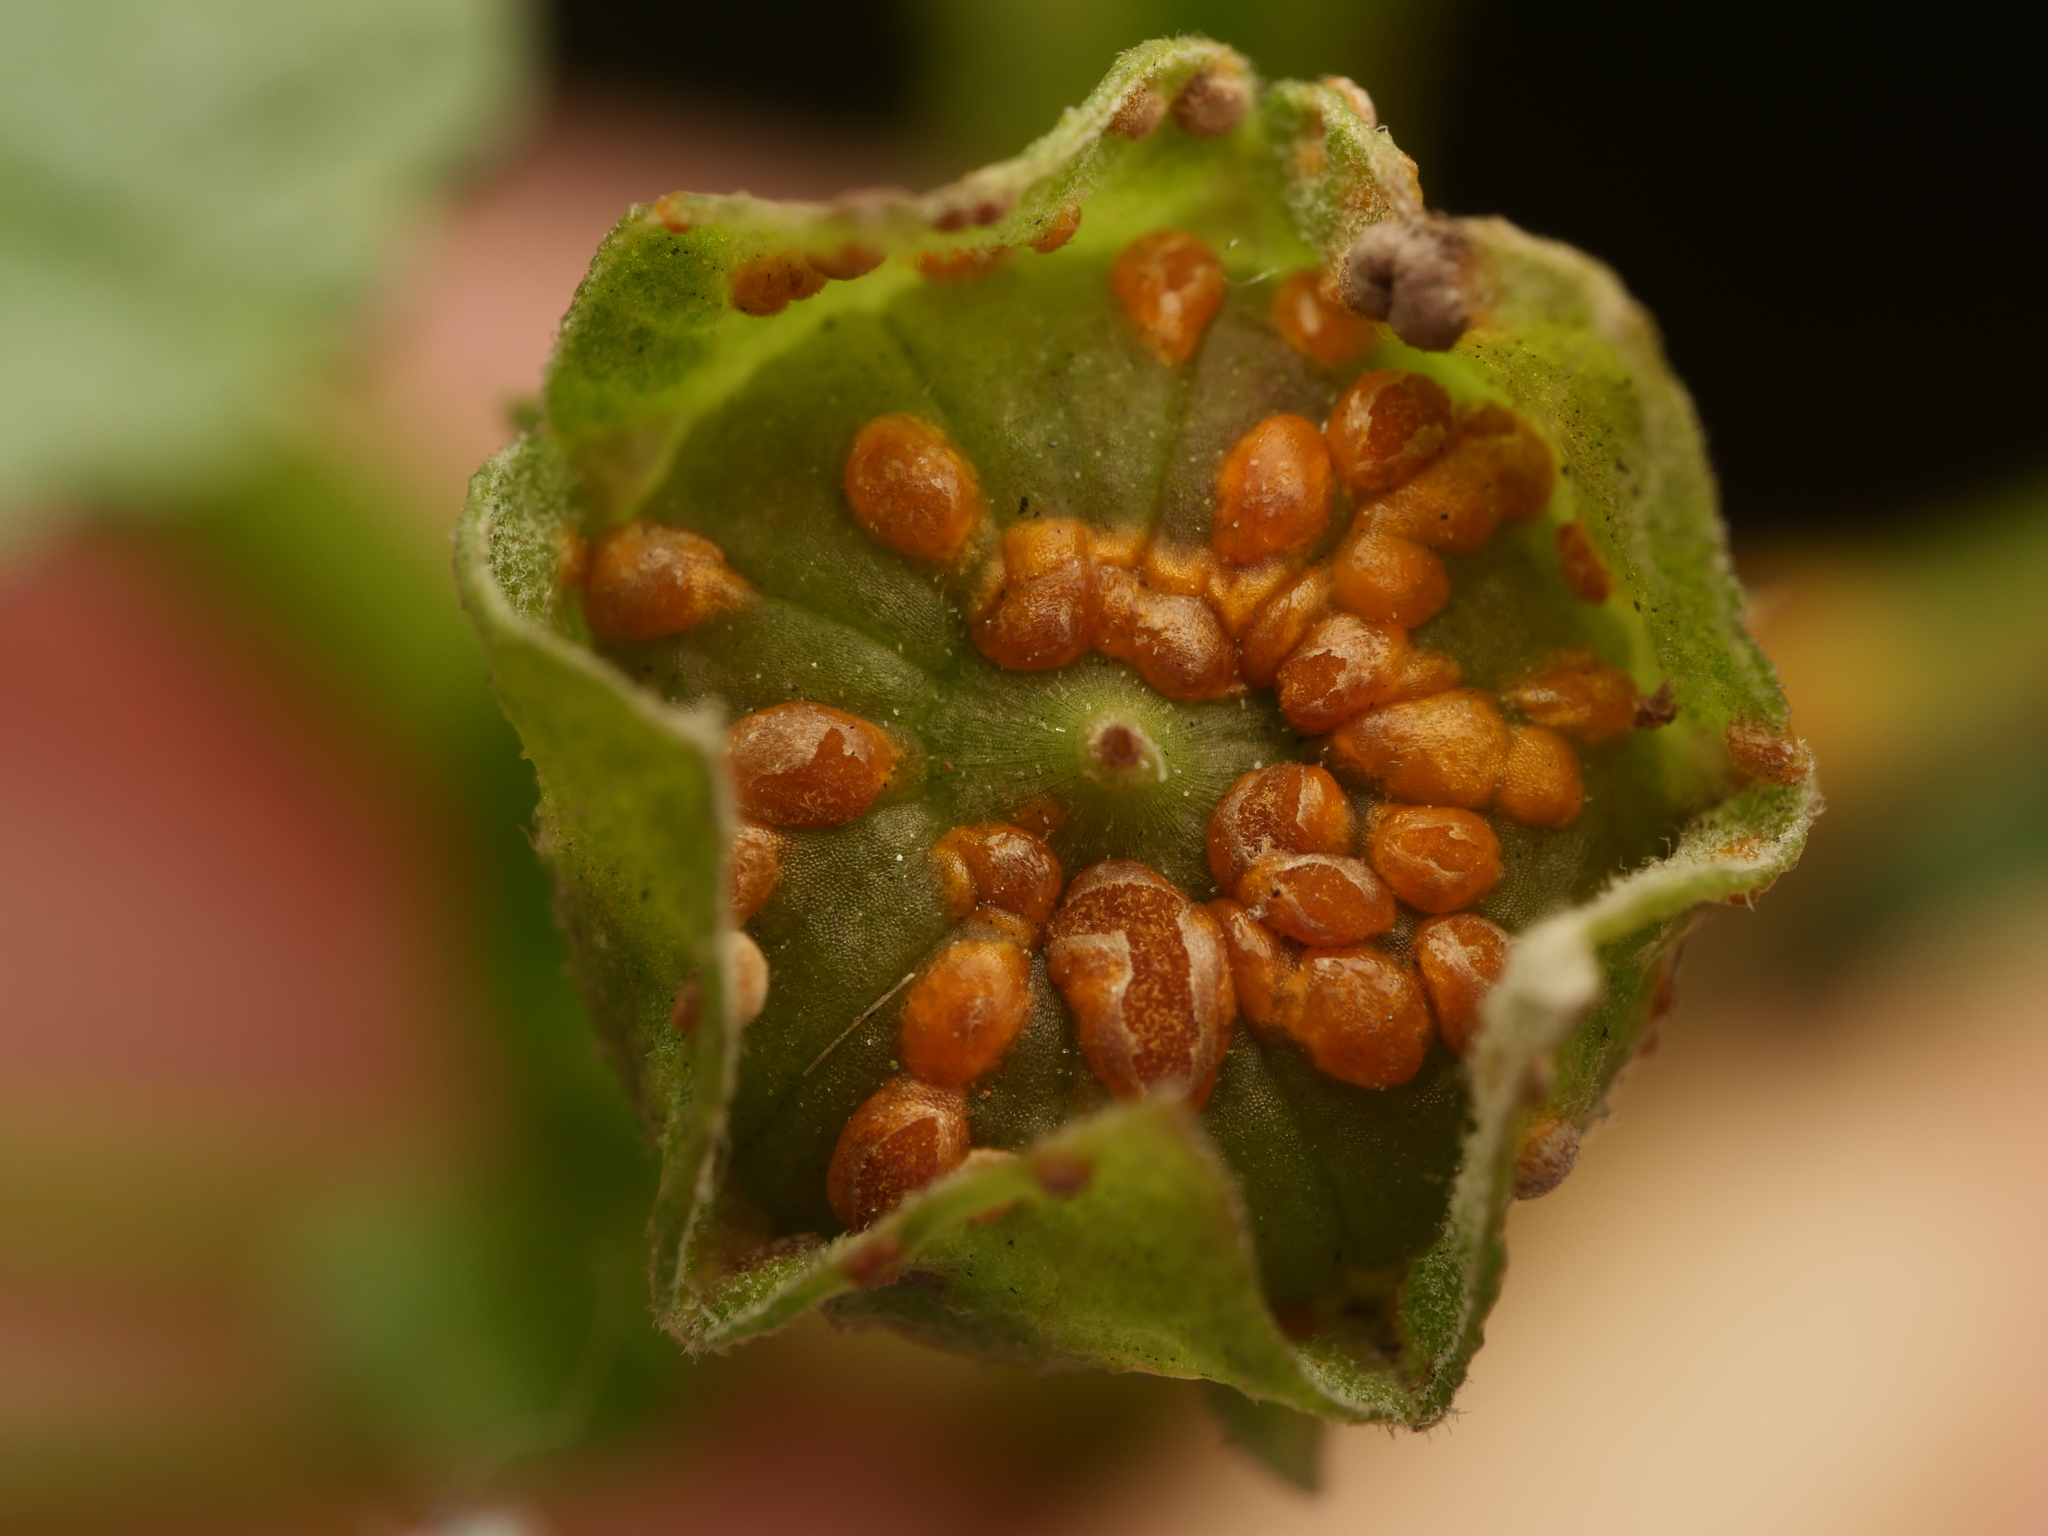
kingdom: Fungi
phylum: Basidiomycota
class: Pucciniomycetes
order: Pucciniales
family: Pucciniaceae
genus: Puccinia
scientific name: Puccinia malvacearum
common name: Hollyhock rust
